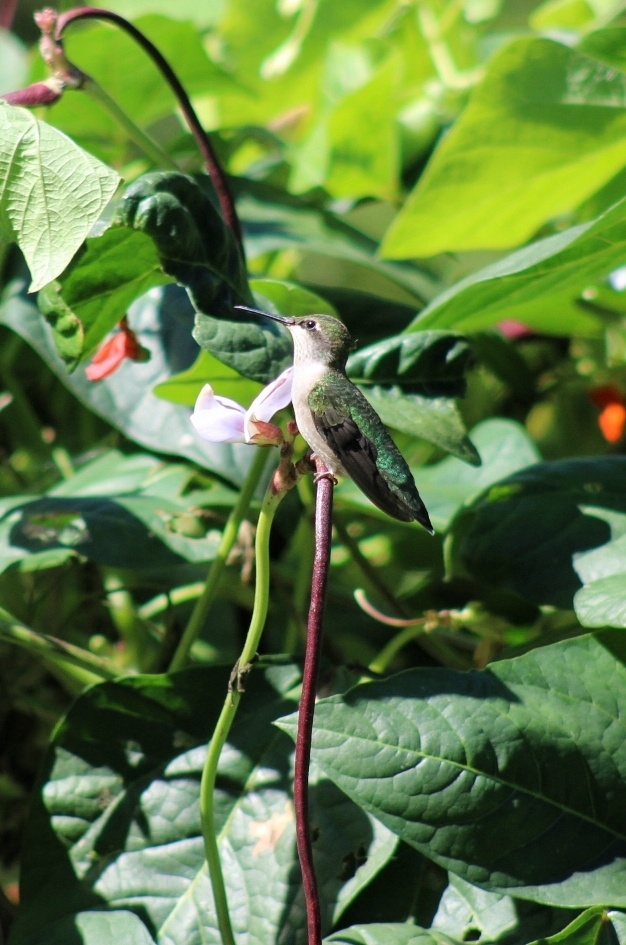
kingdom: Animalia
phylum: Chordata
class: Aves
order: Apodiformes
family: Trochilidae
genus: Archilochus
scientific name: Archilochus colubris
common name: Ruby-throated hummingbird
